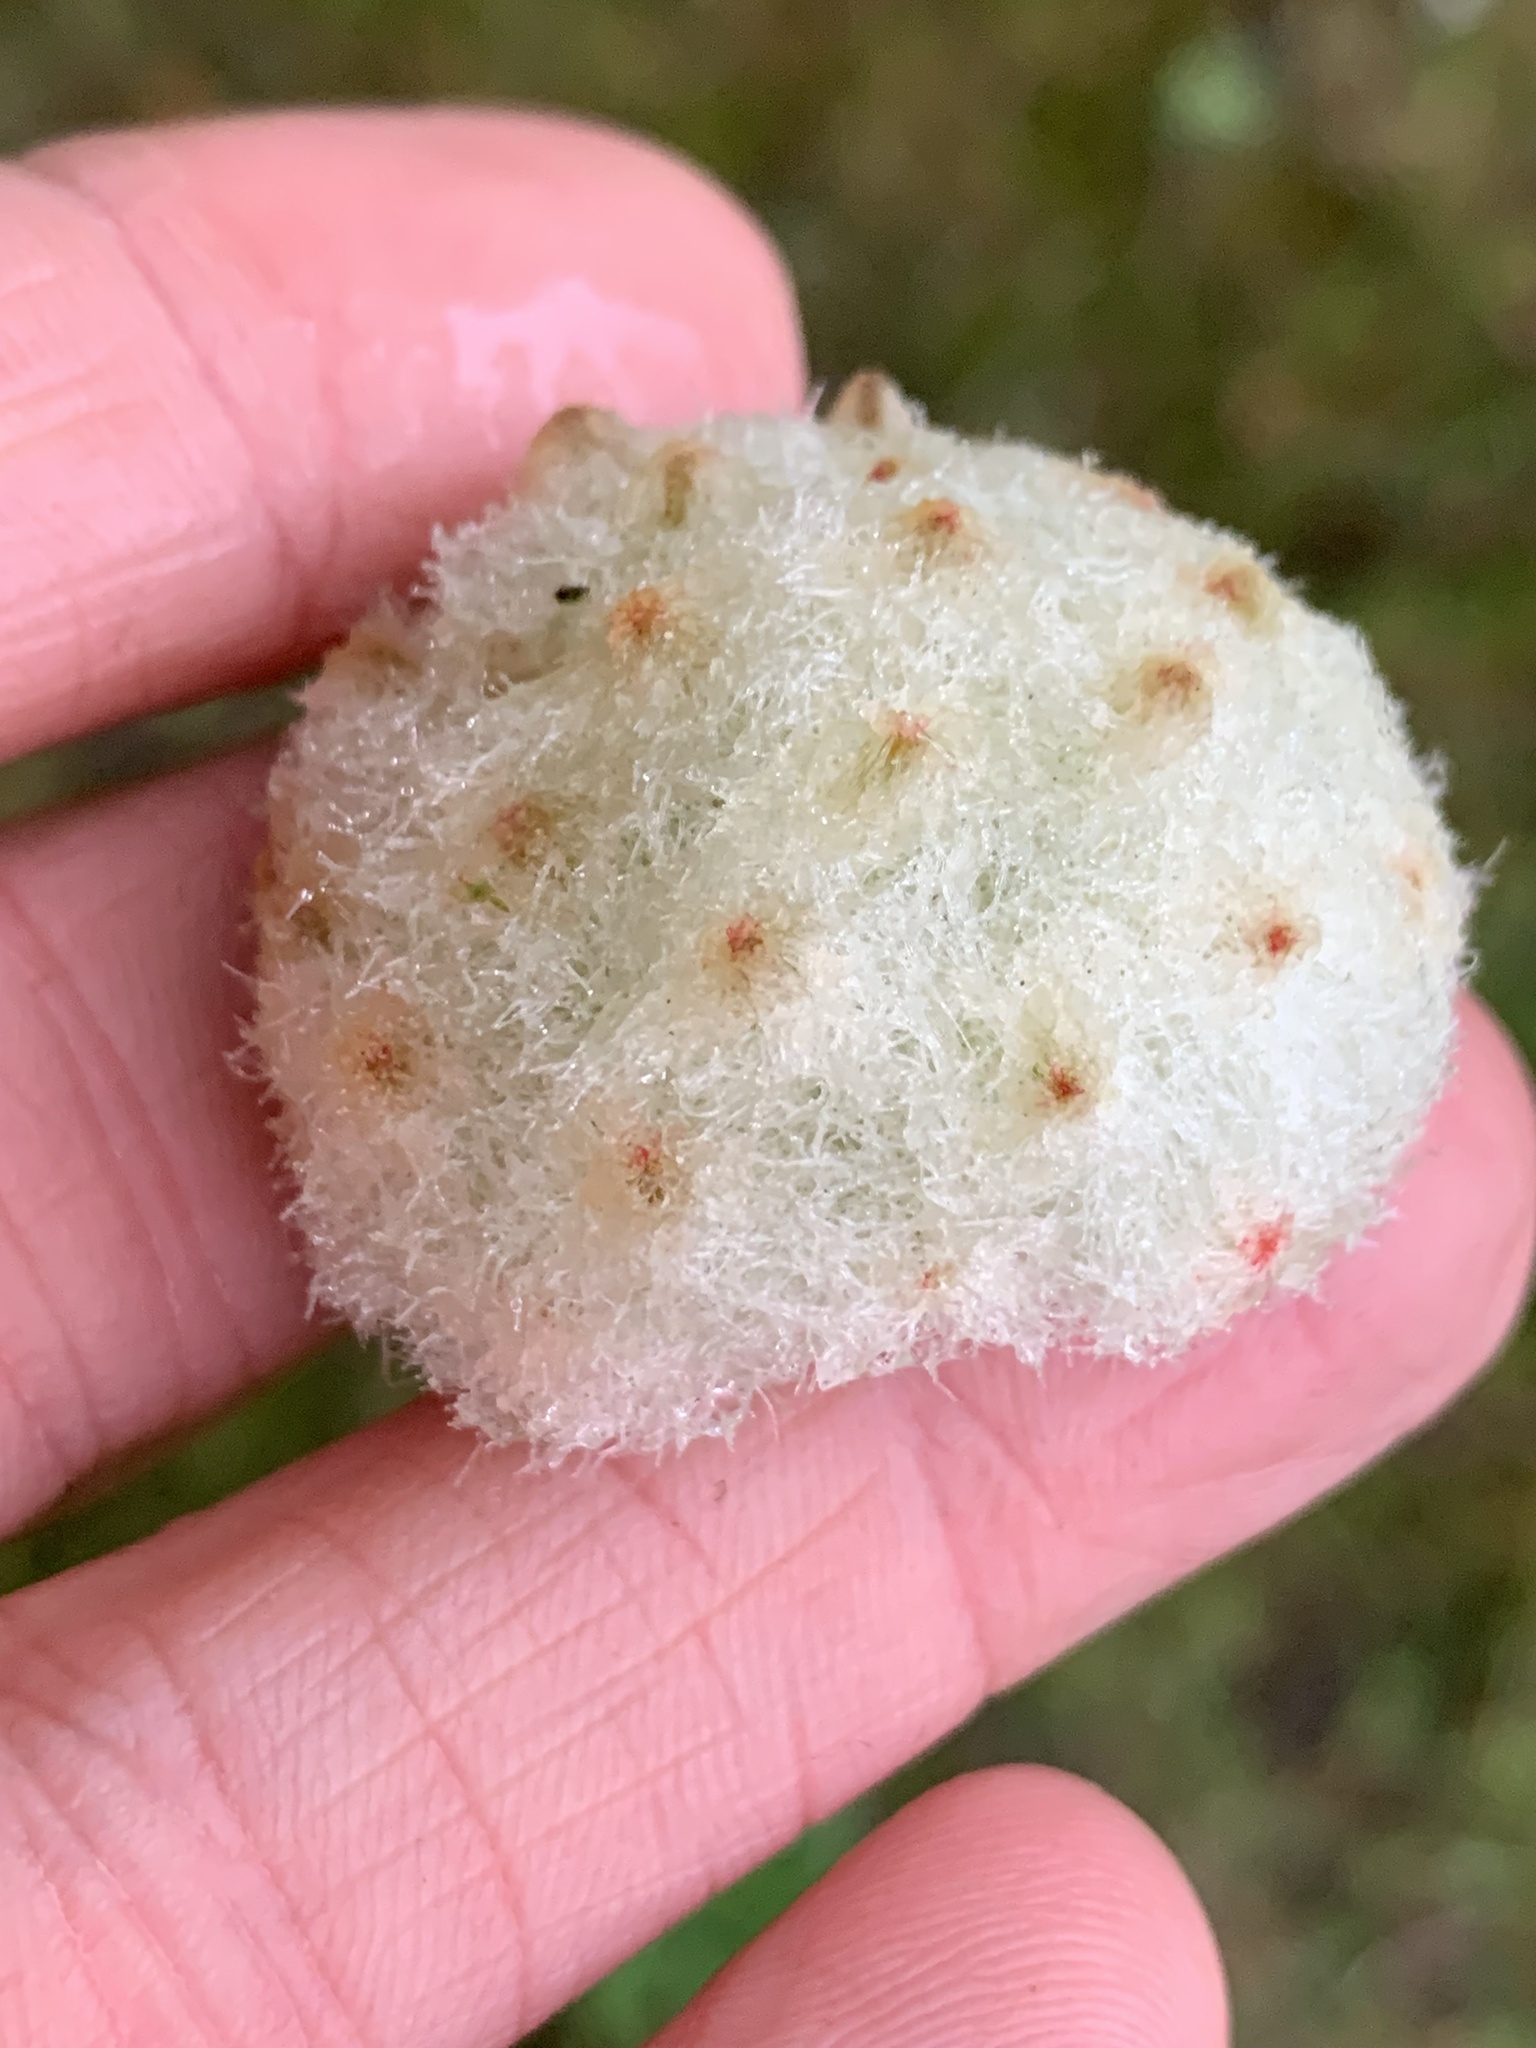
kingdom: Animalia
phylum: Arthropoda
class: Insecta
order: Hymenoptera
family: Cynipidae
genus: Callirhytis
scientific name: Callirhytis
